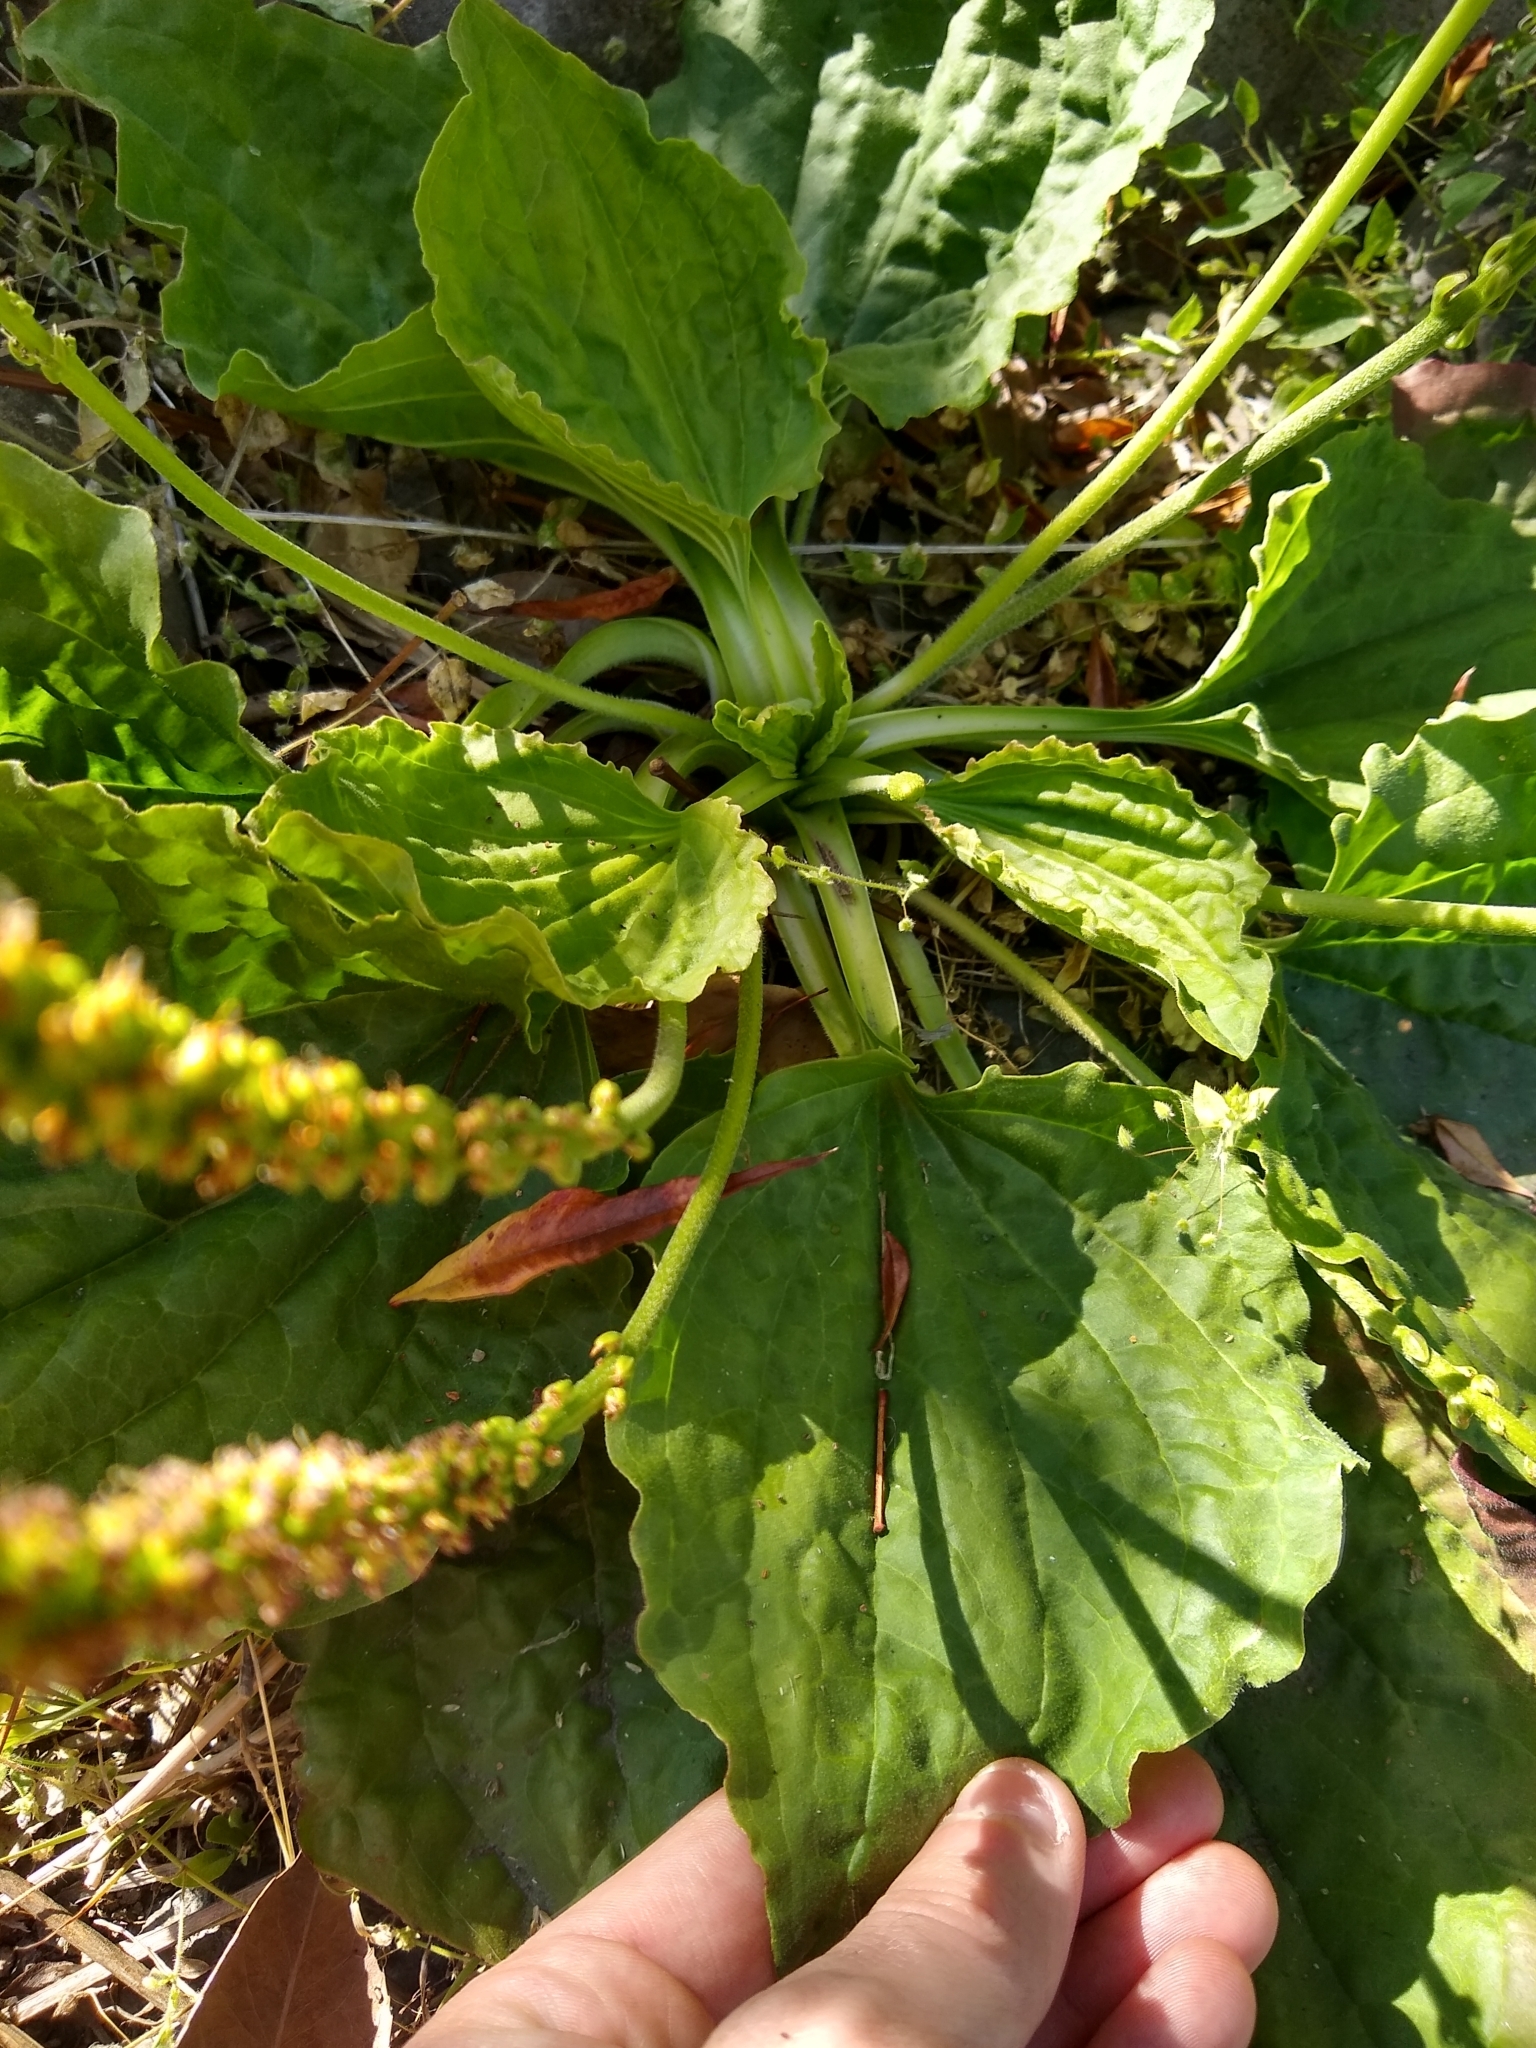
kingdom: Plantae
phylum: Tracheophyta
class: Magnoliopsida
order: Lamiales
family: Plantaginaceae
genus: Plantago
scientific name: Plantago major
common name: Common plantain
